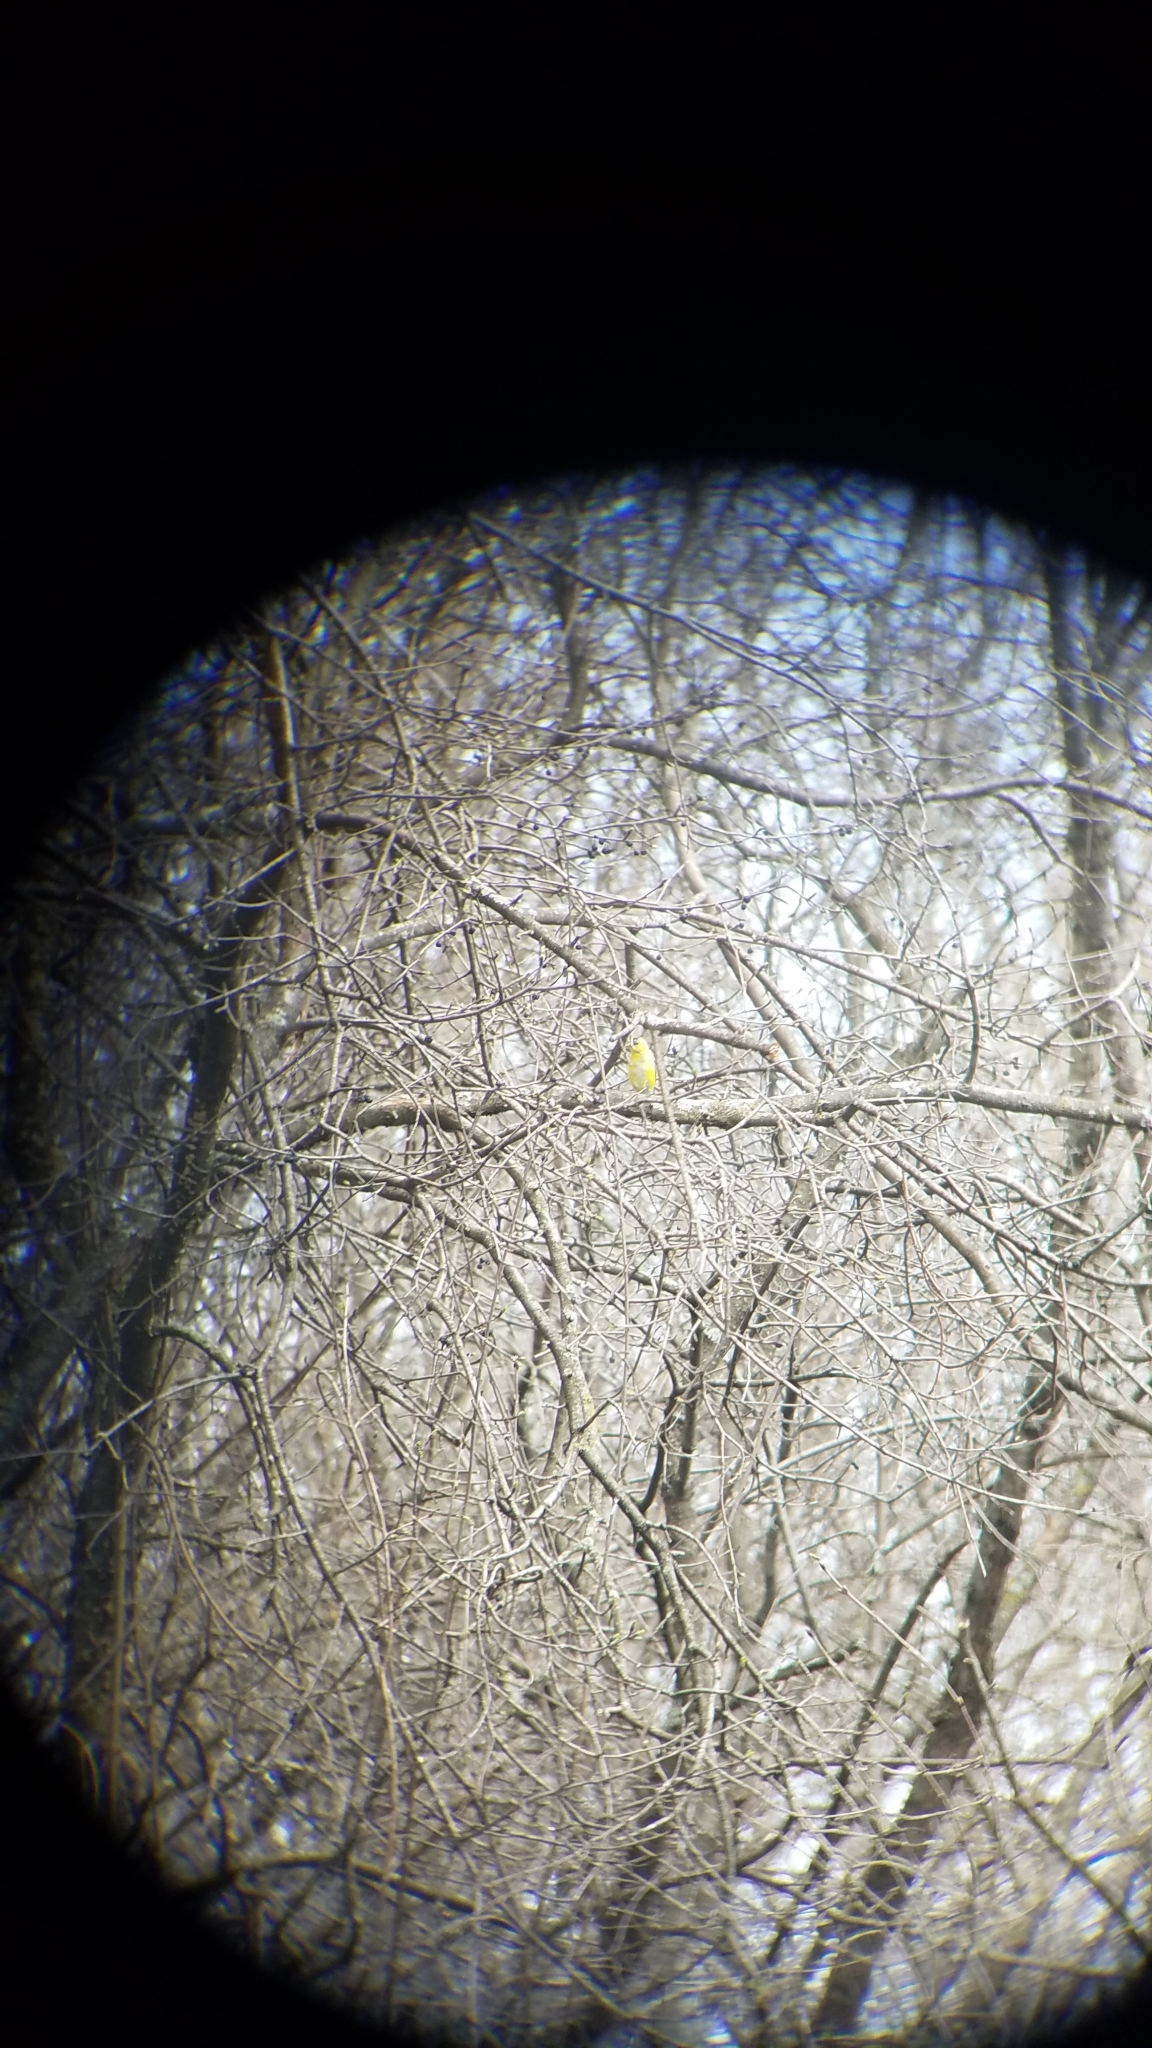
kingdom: Animalia
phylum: Chordata
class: Aves
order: Passeriformes
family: Fringillidae
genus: Spinus
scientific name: Spinus tristis
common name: American goldfinch
